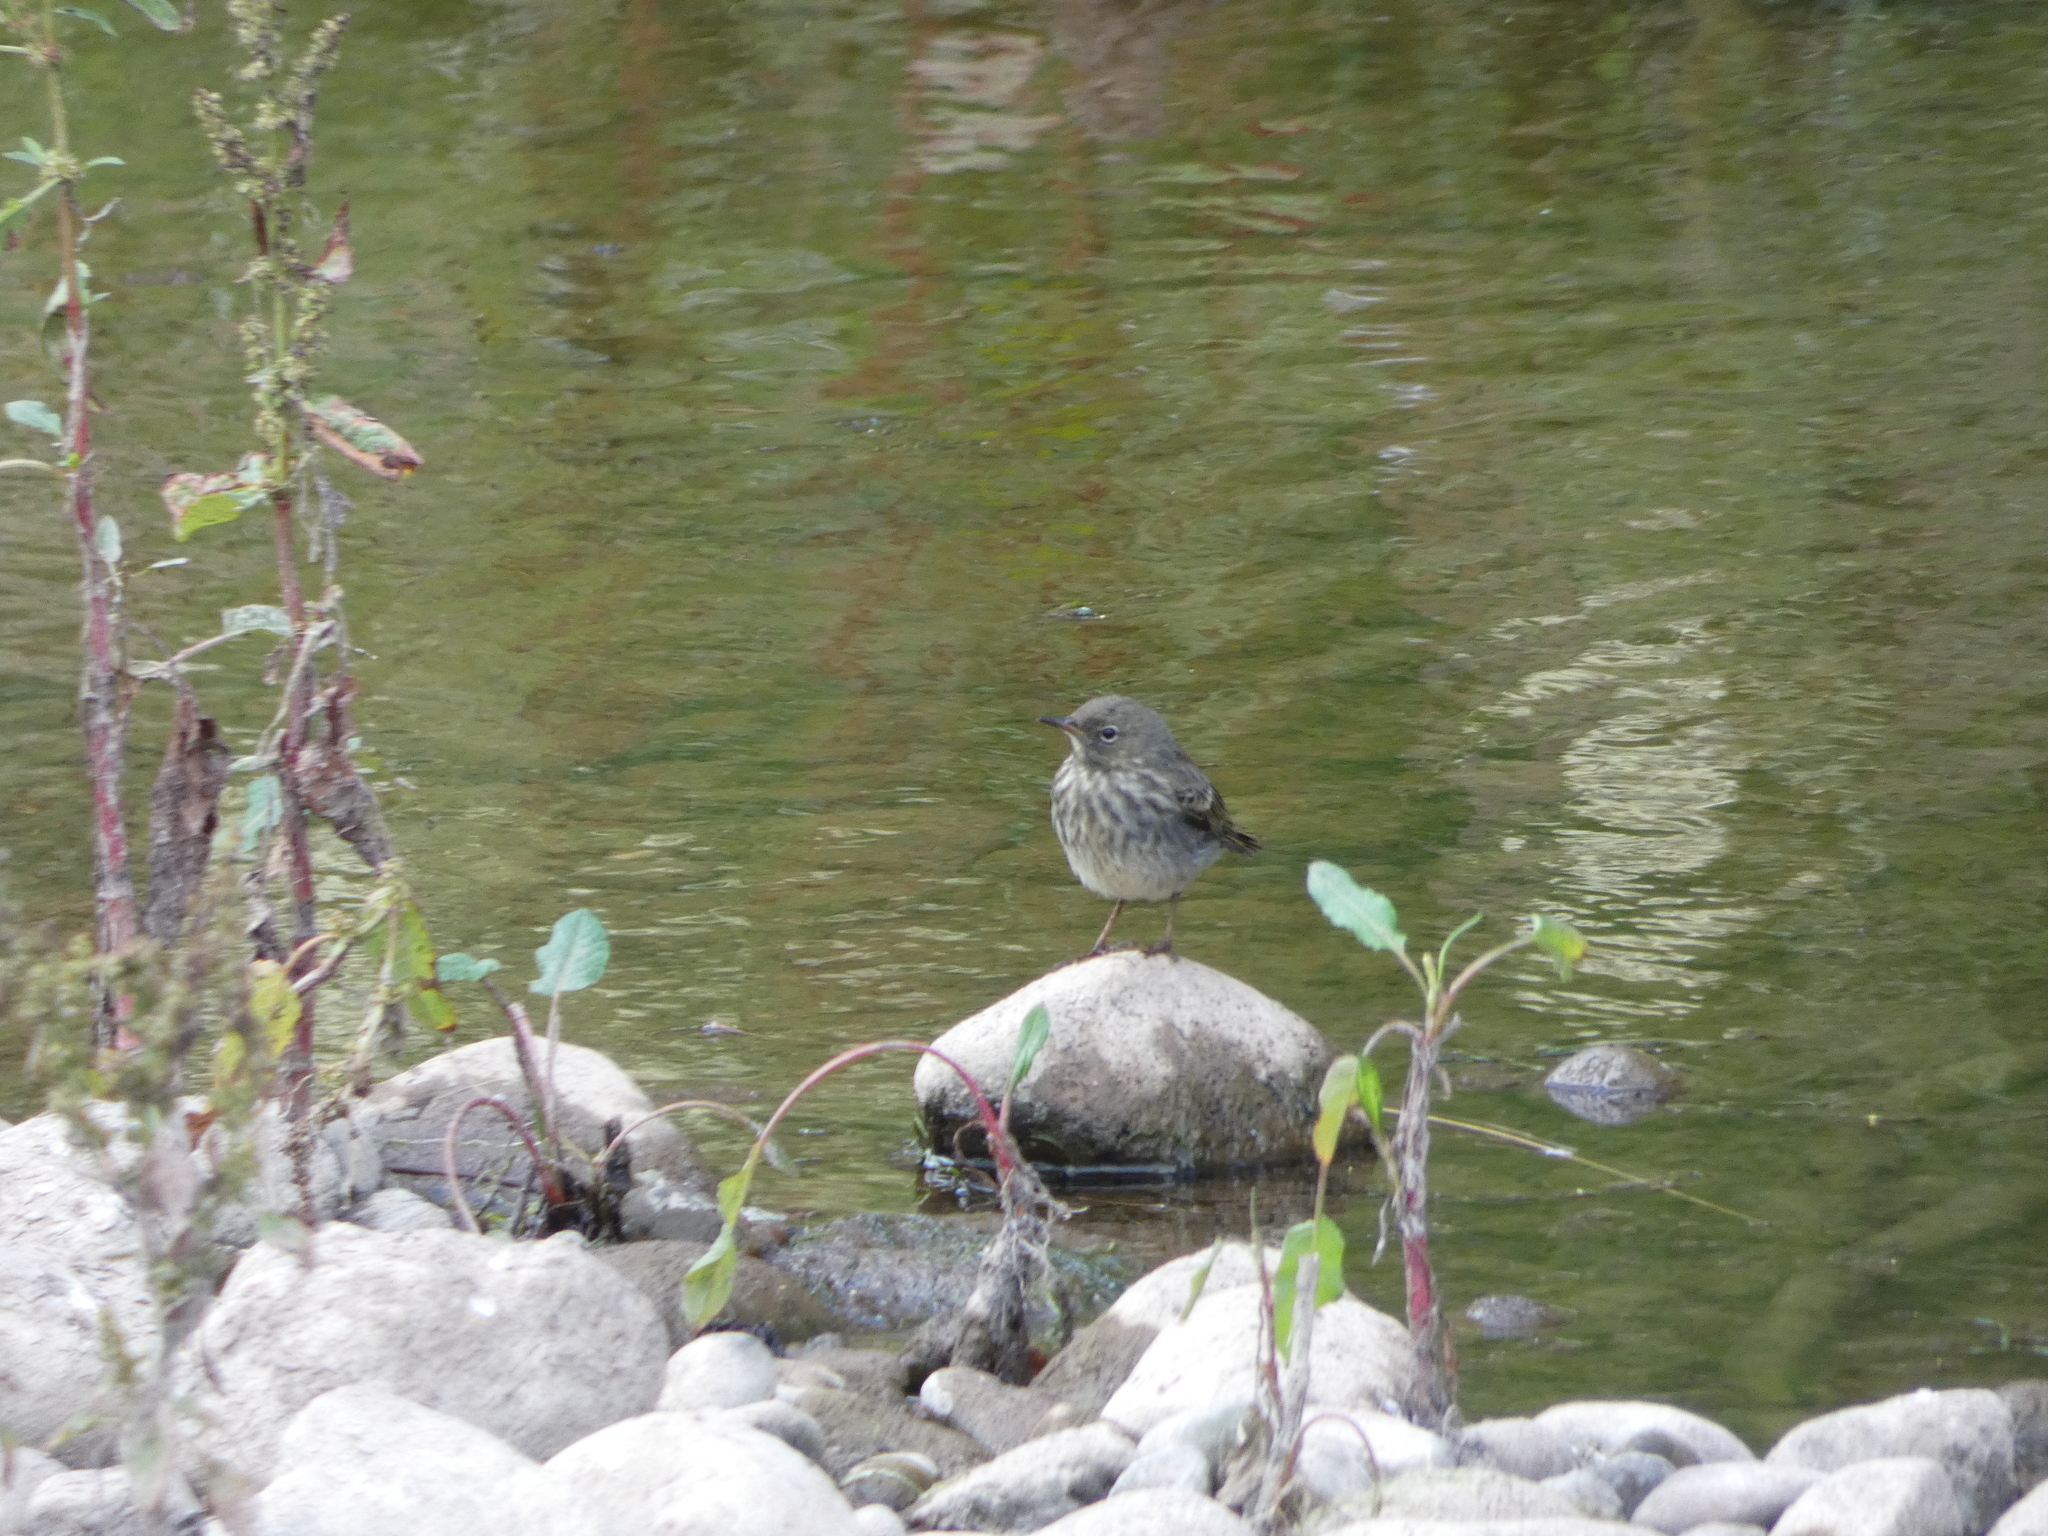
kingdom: Animalia
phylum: Chordata
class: Aves
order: Passeriformes
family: Motacillidae
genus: Anthus
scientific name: Anthus petrosus
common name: Eurasian rock pipit
